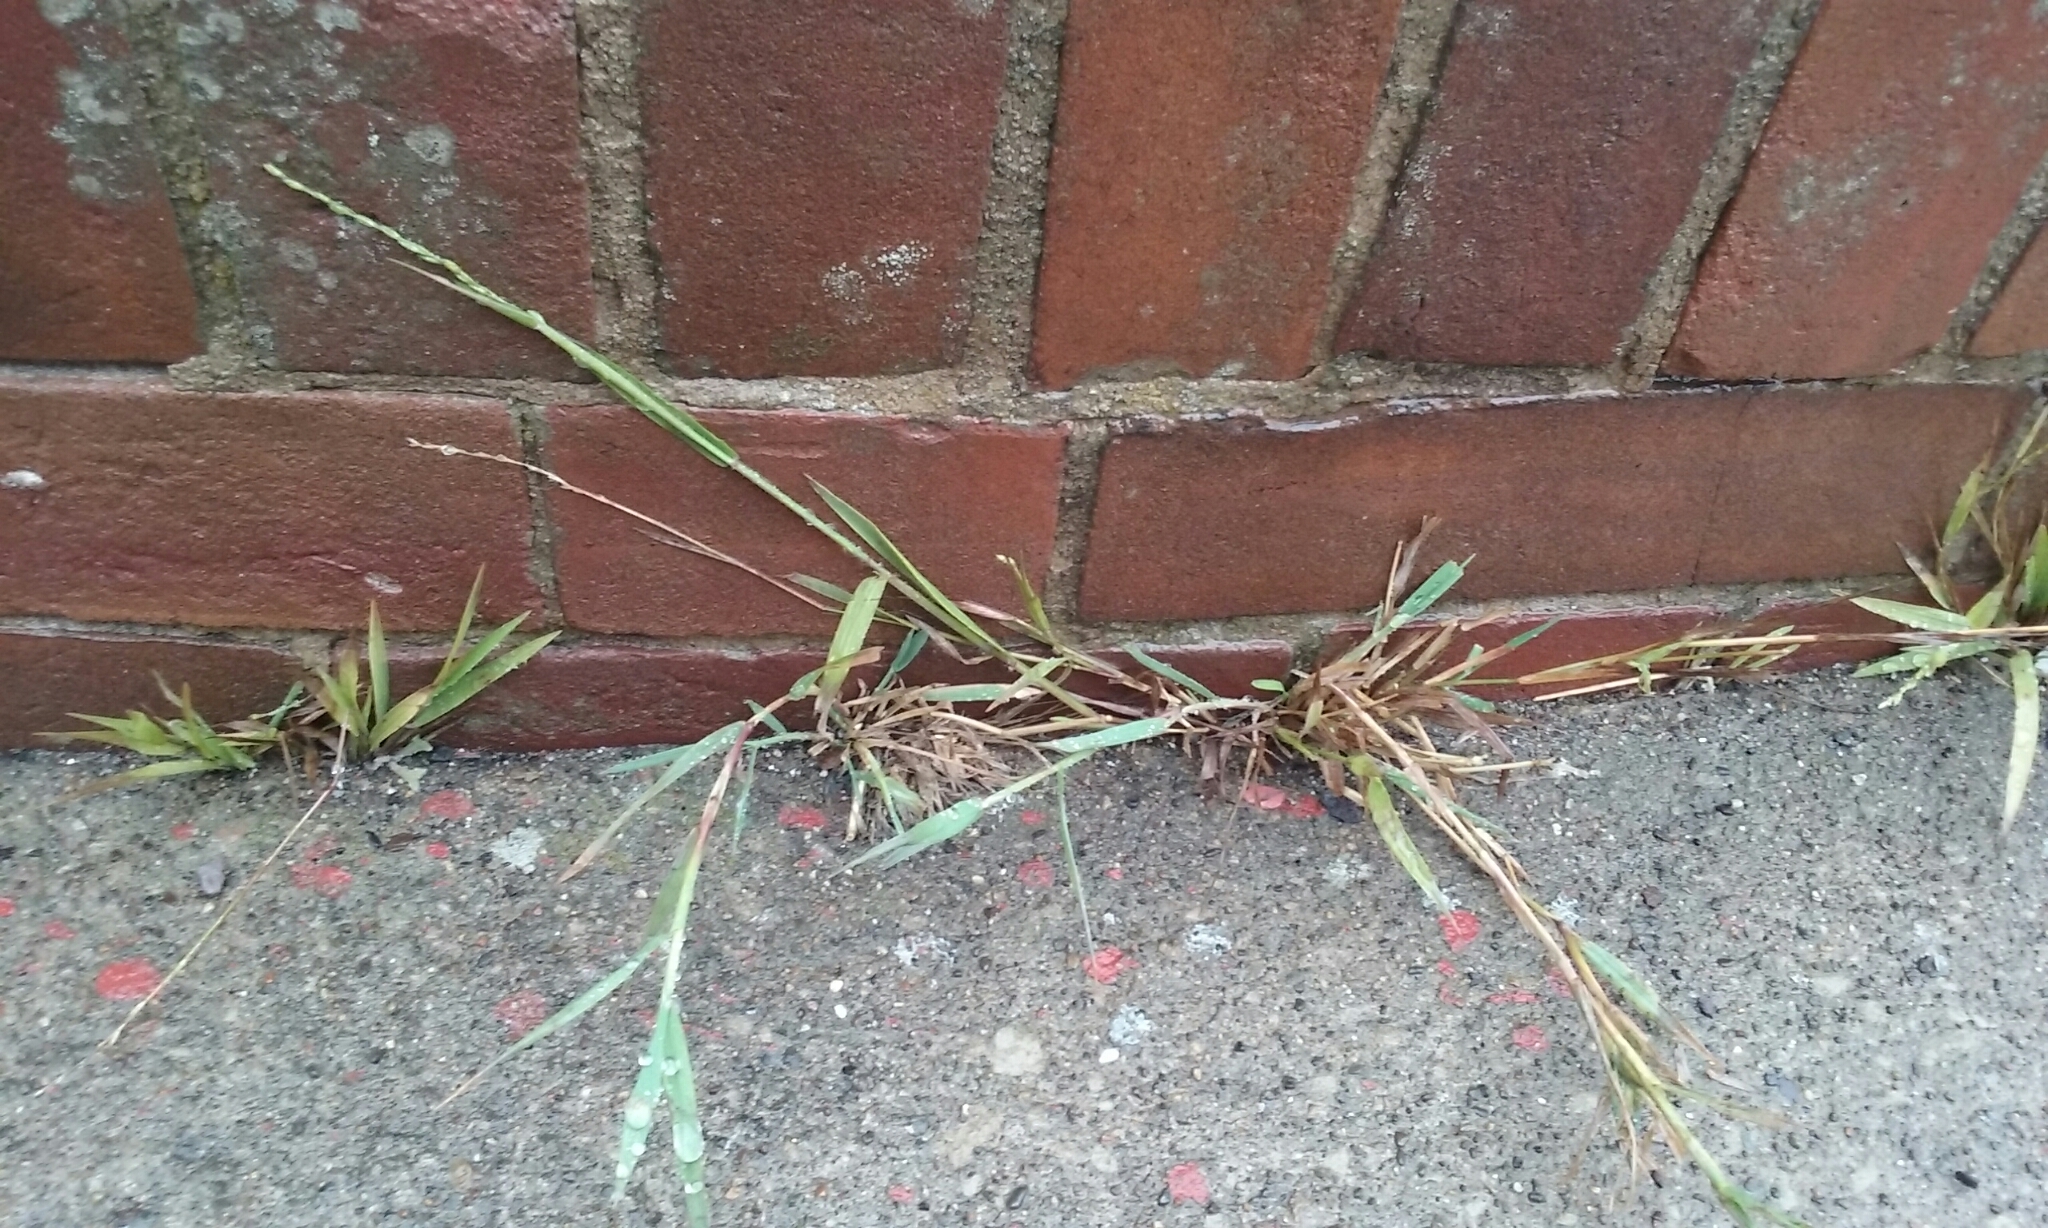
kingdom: Plantae
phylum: Tracheophyta
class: Liliopsida
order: Poales
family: Poaceae
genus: Ehrharta
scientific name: Ehrharta erecta
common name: Panic veldtgrass
